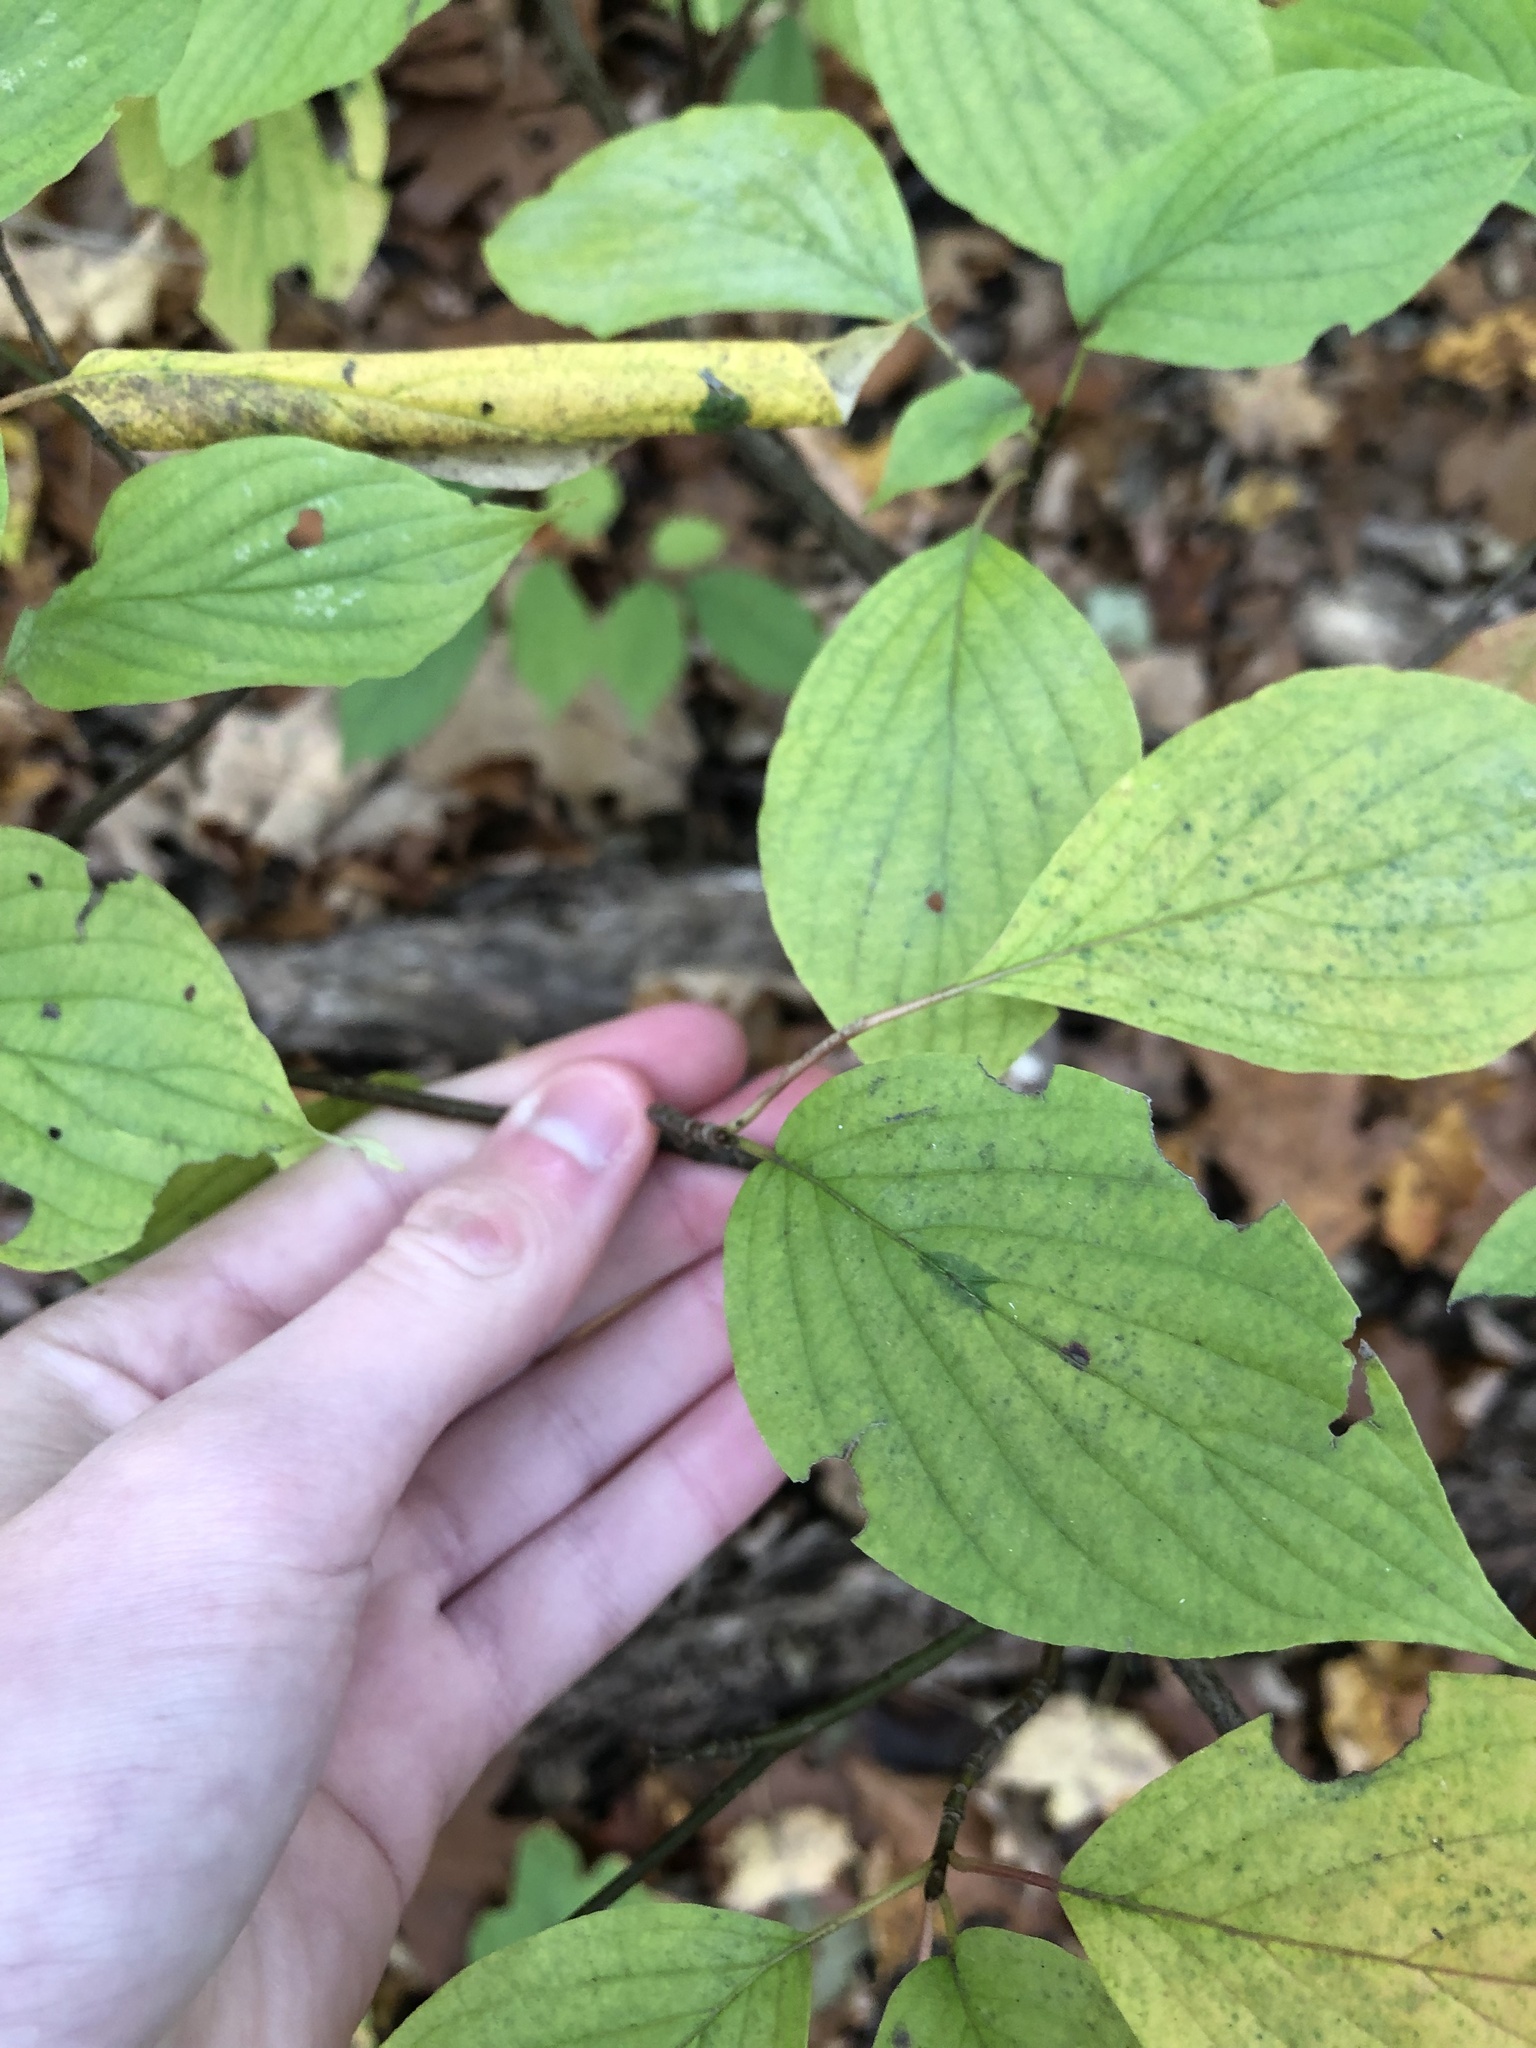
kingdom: Plantae
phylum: Tracheophyta
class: Magnoliopsida
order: Cornales
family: Cornaceae
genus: Cornus
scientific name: Cornus alternifolia
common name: Pagoda dogwood
